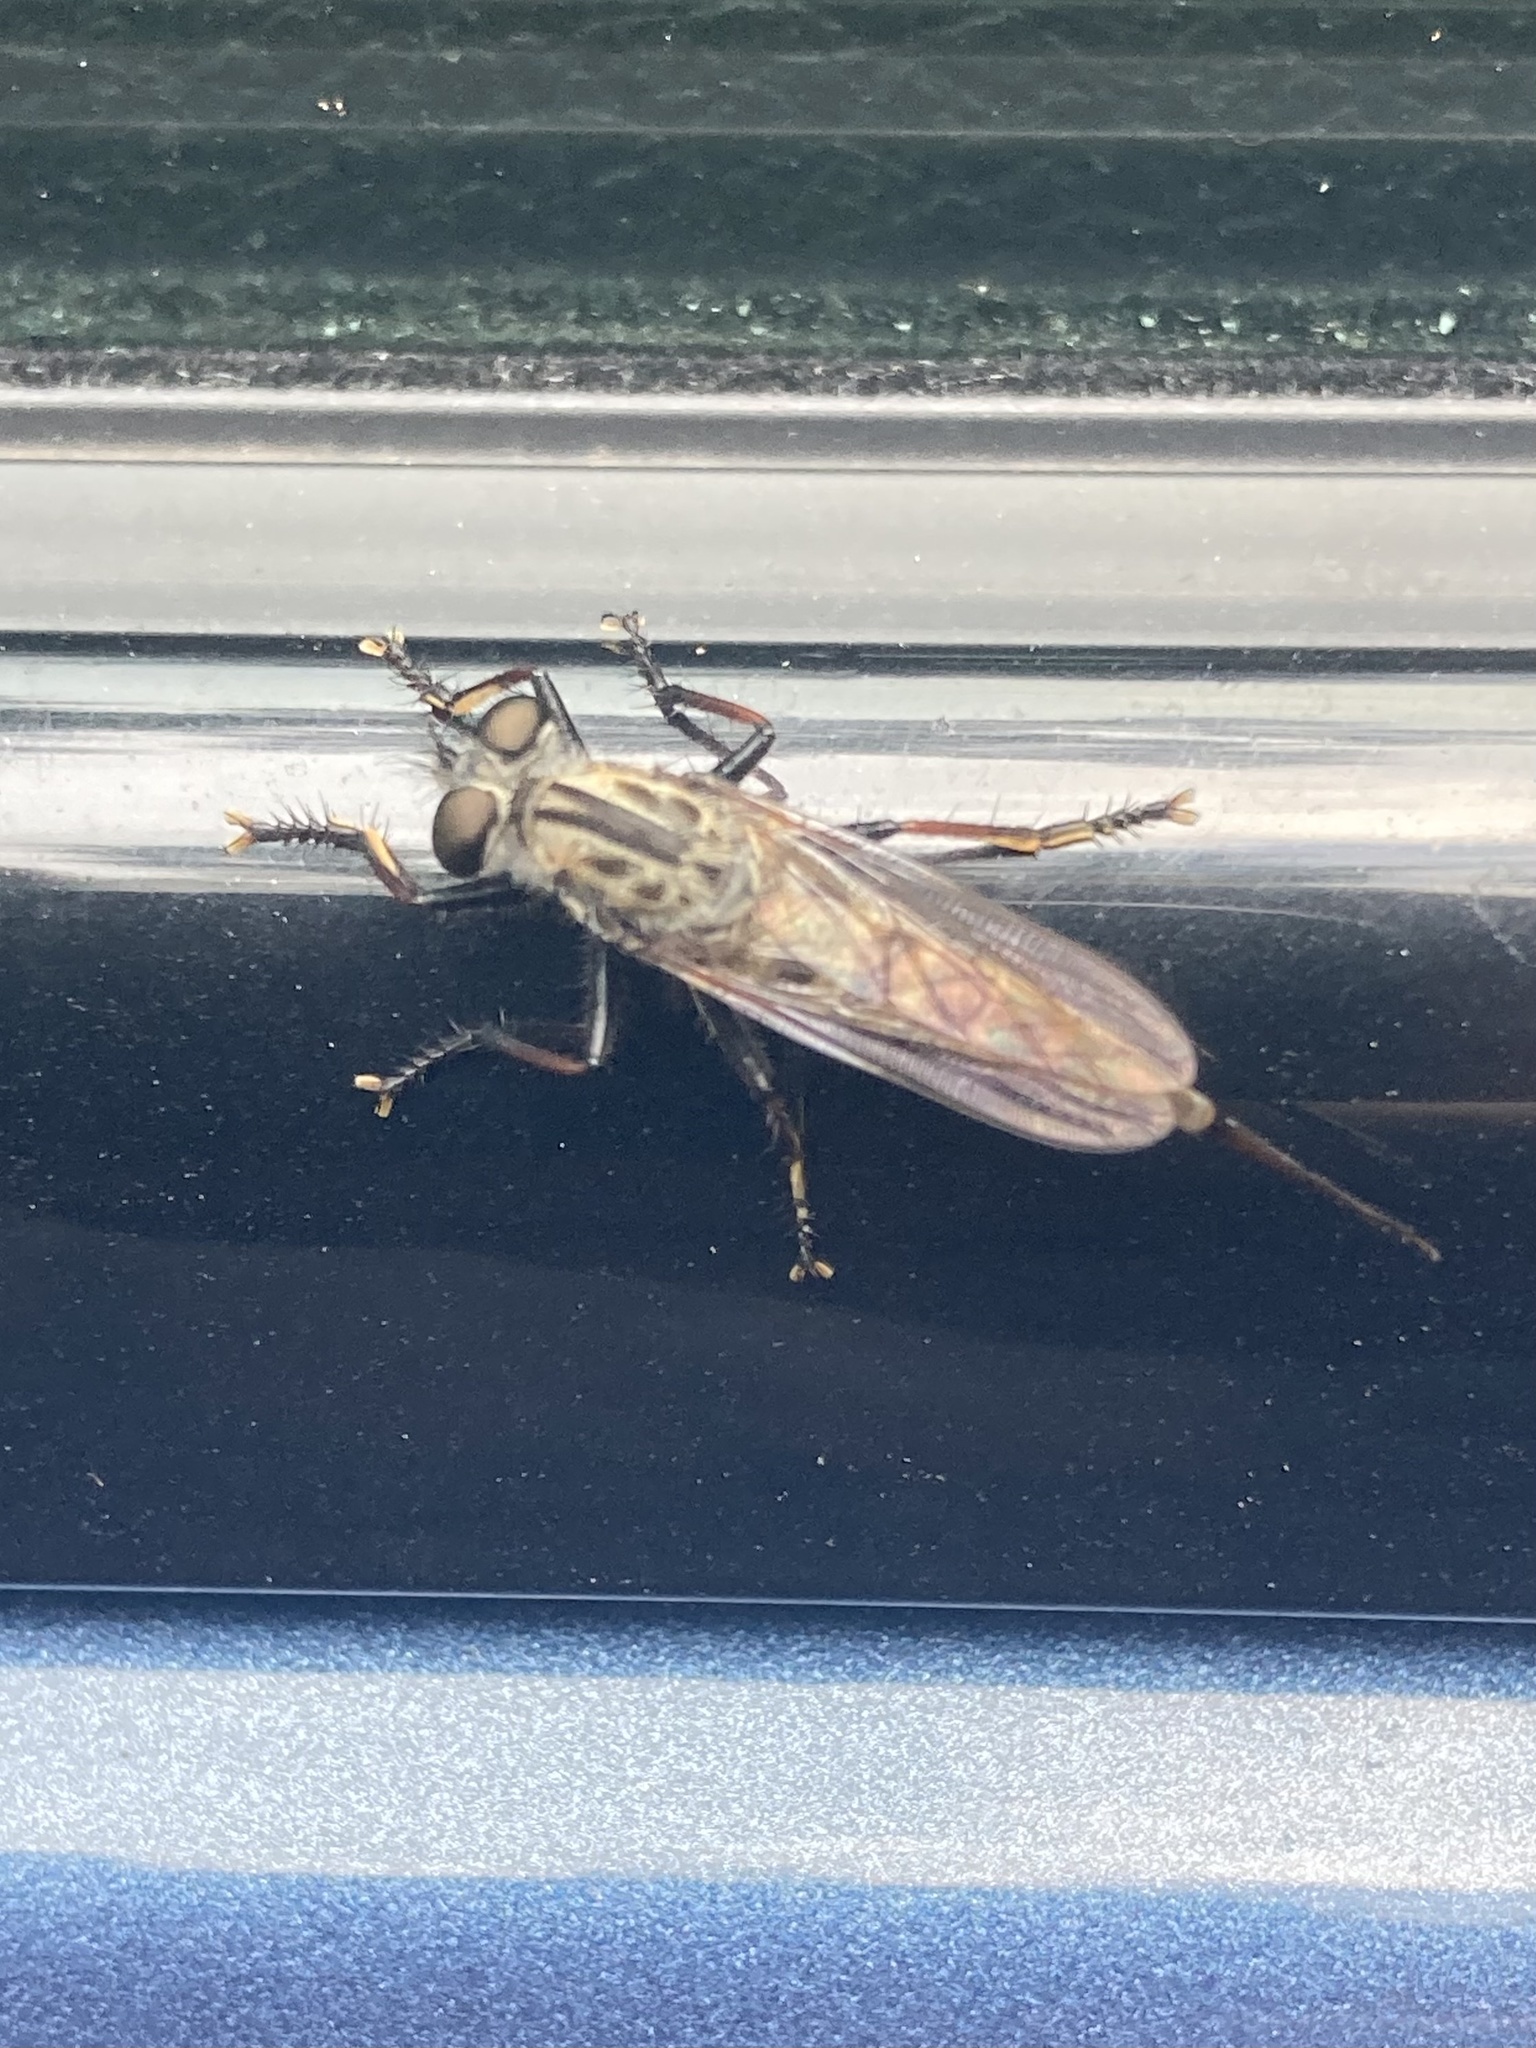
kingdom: Animalia
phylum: Arthropoda
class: Insecta
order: Diptera
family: Asilidae
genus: Efferia
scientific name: Efferia aestuans
